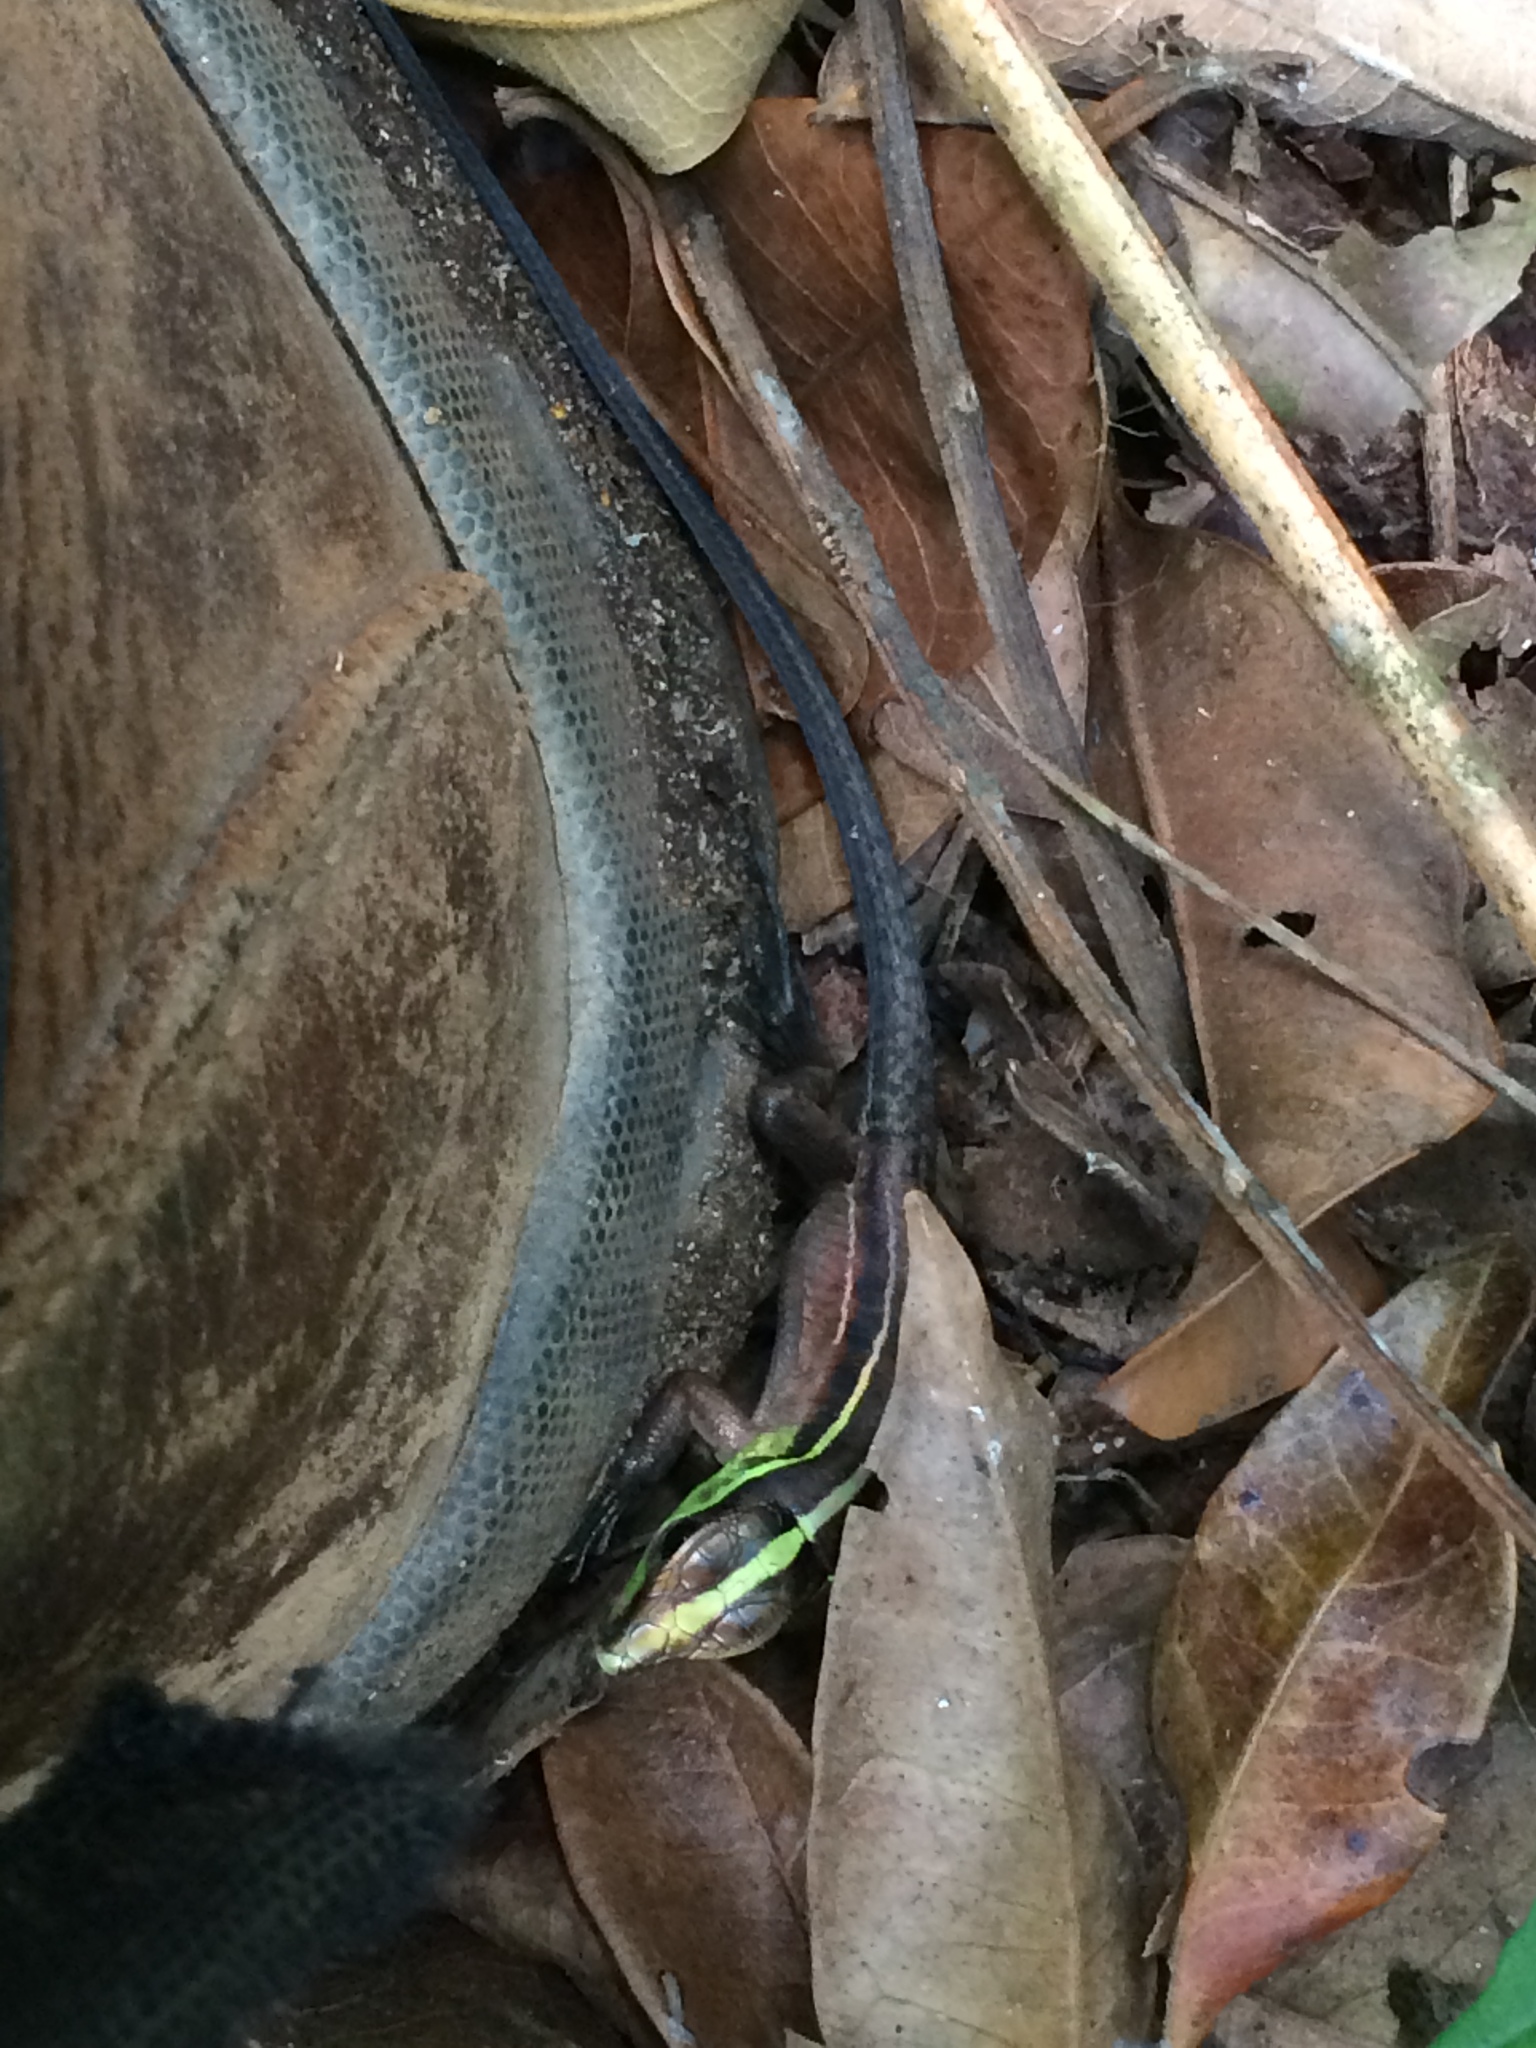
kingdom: Animalia
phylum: Chordata
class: Squamata
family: Teiidae
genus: Kentropyx
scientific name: Kentropyx calcarata
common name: Striped forest whiptail
